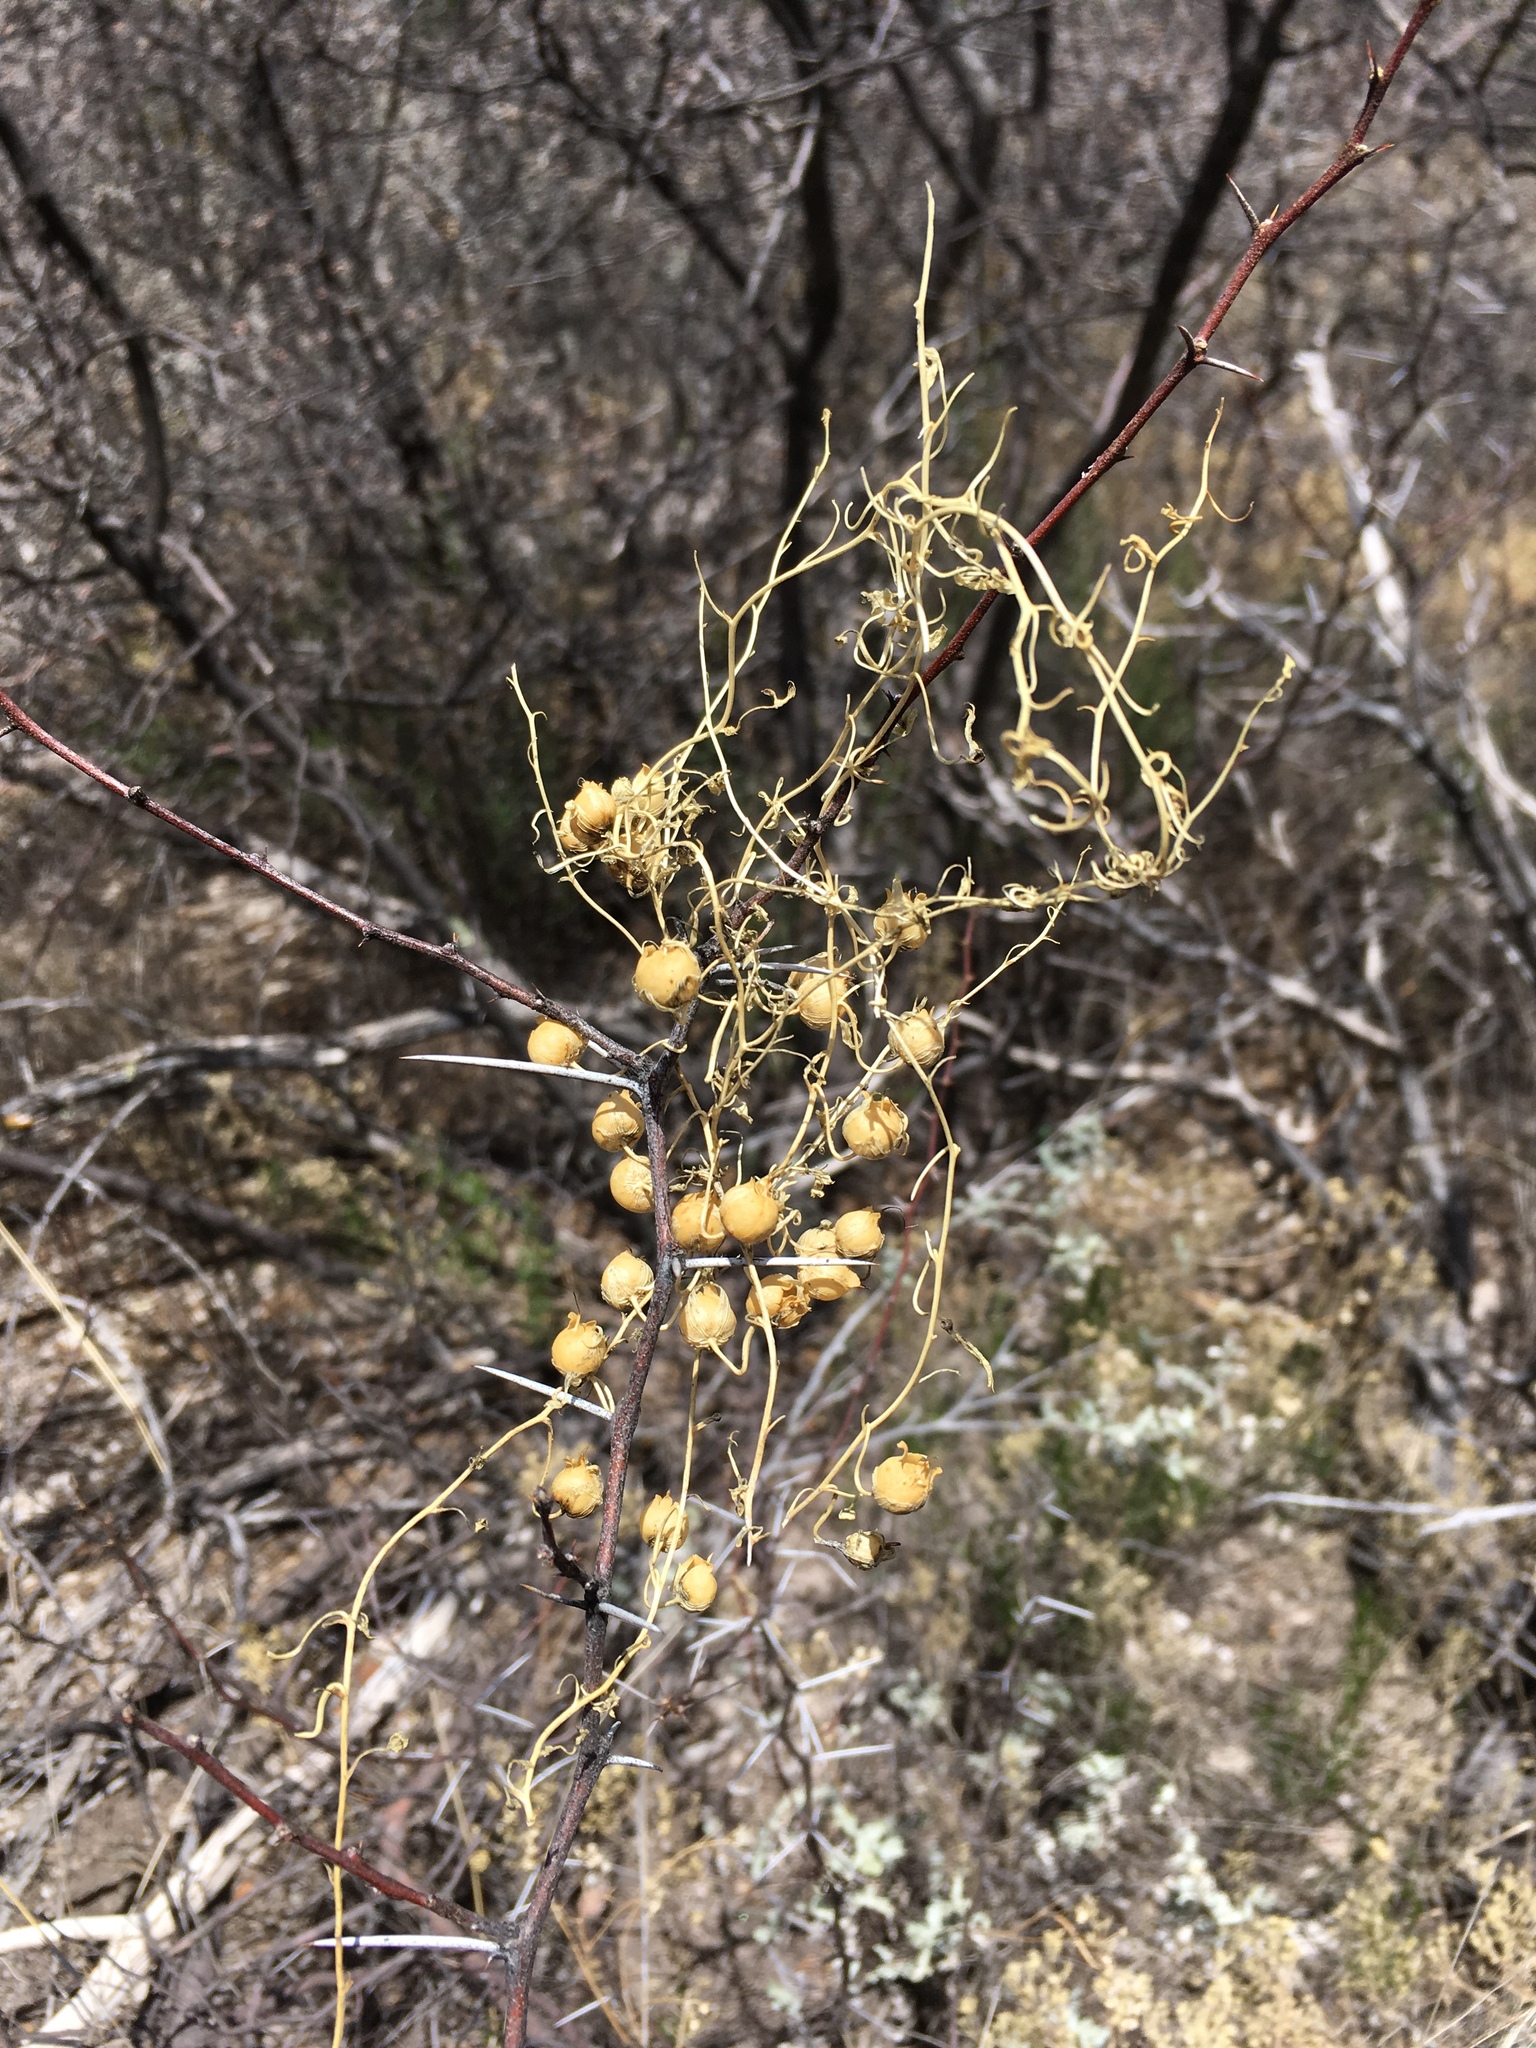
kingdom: Plantae
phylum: Tracheophyta
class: Magnoliopsida
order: Lamiales
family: Plantaginaceae
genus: Maurandella
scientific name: Maurandella antirrhiniflora
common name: Violet twining-snapdragon
